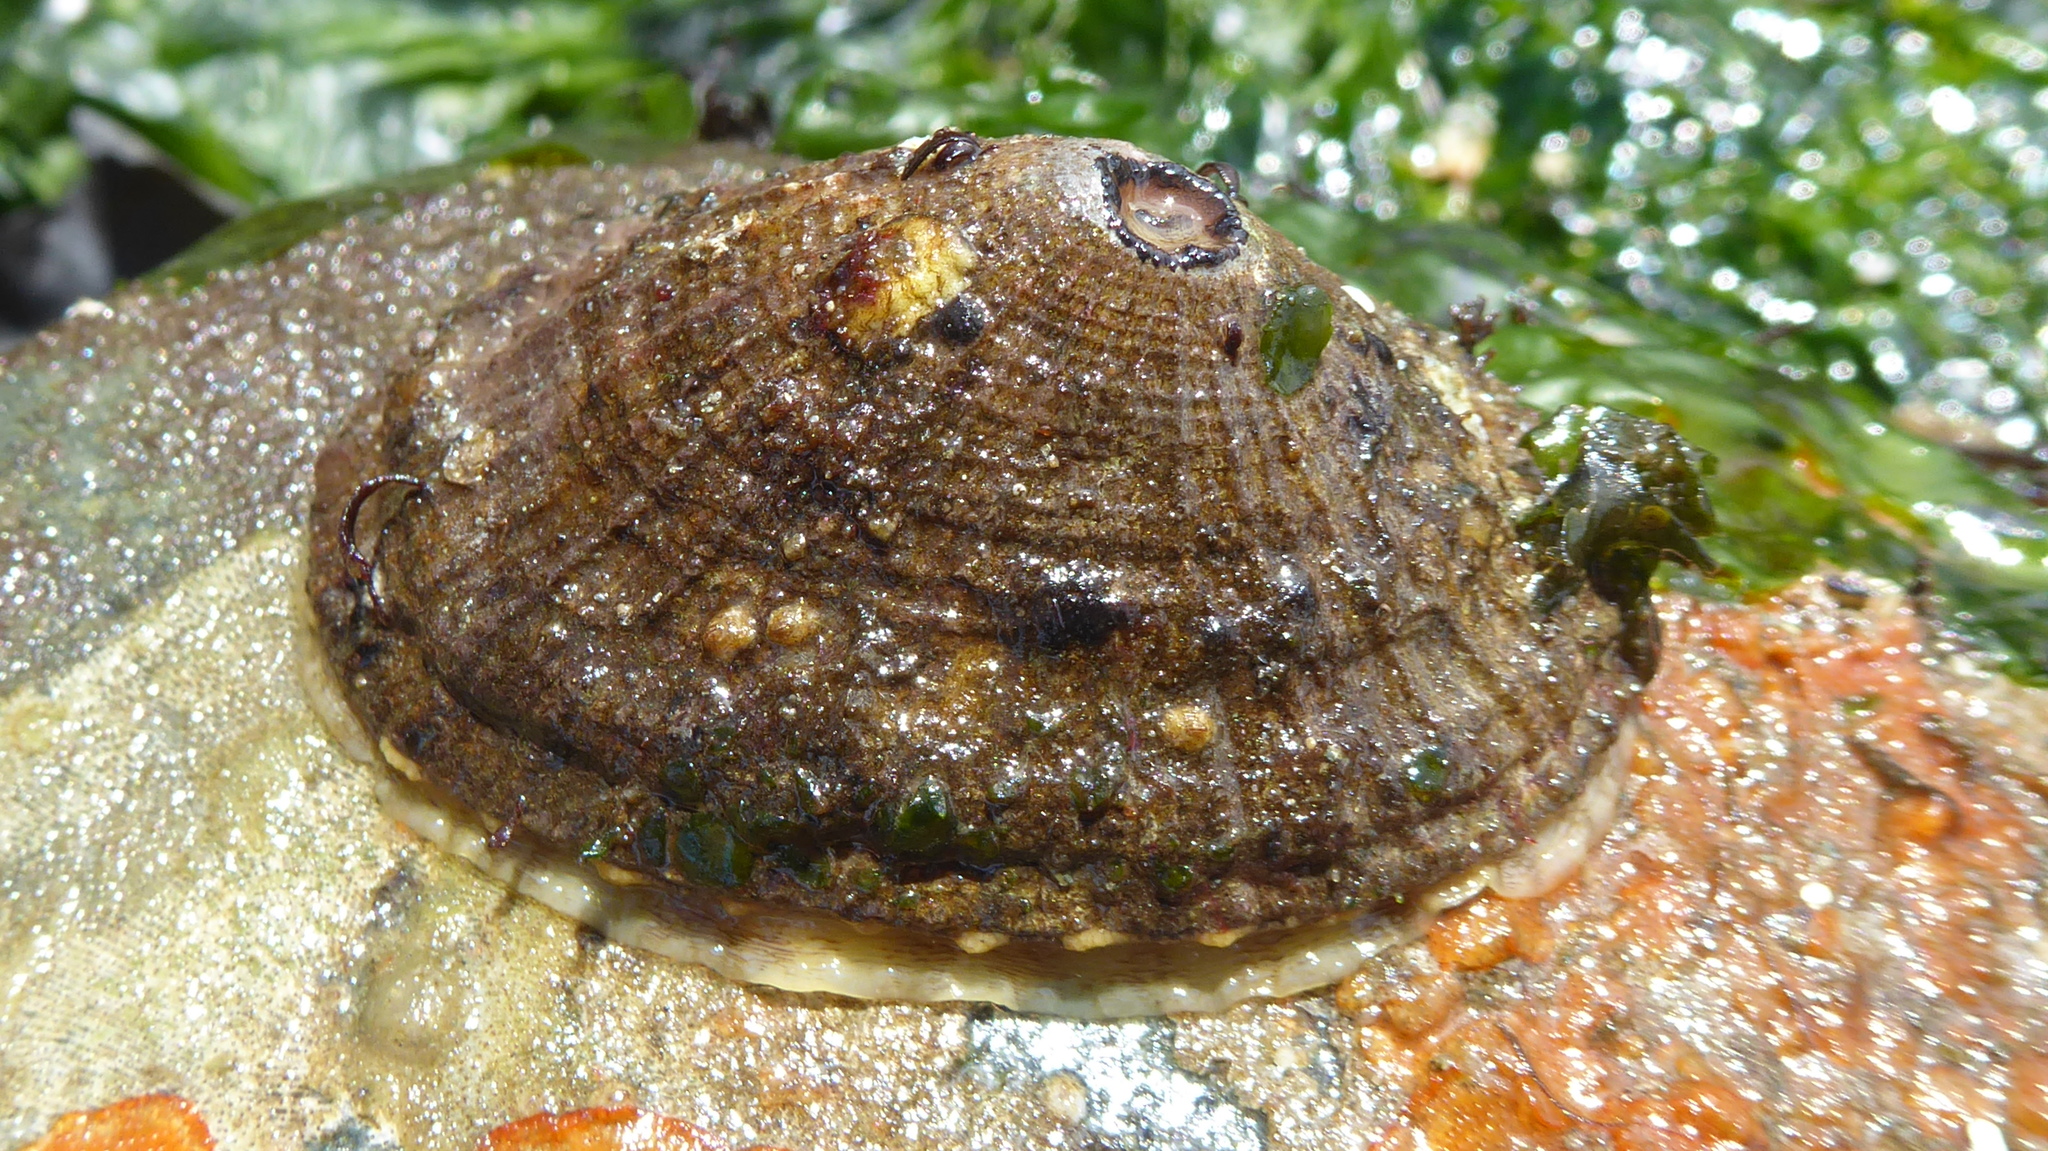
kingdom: Animalia
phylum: Mollusca
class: Gastropoda
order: Lepetellida
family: Fissurellidae
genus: Diodora
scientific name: Diodora aspera
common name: Rough keyhole limpet
